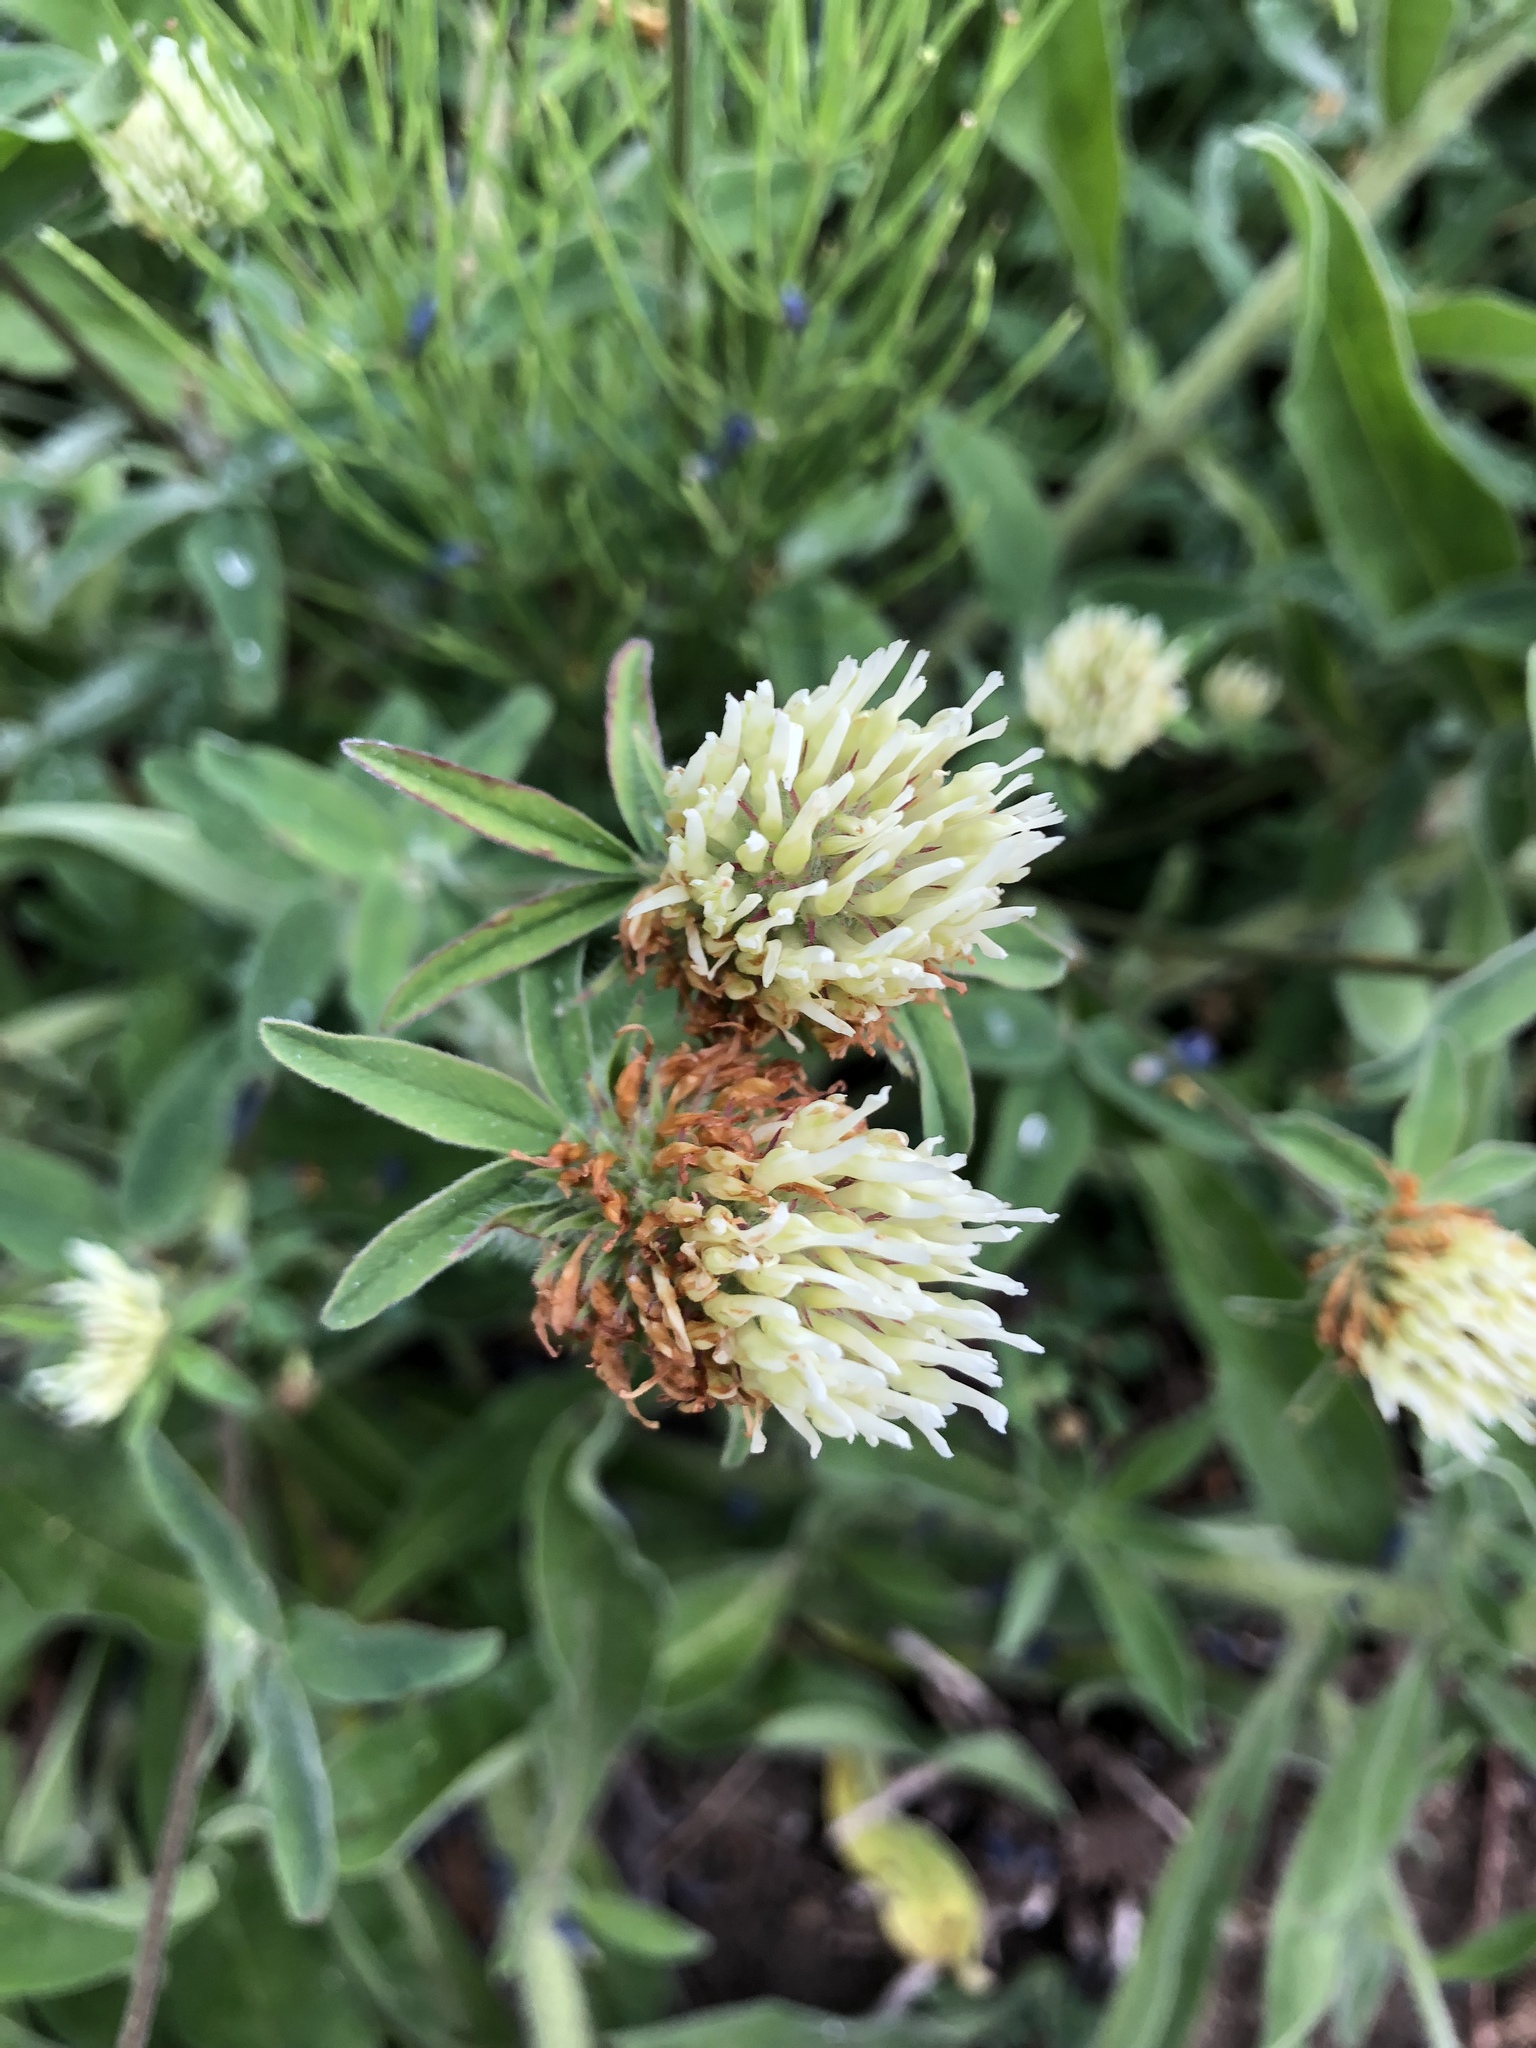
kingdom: Plantae
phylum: Tracheophyta
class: Magnoliopsida
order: Fabales
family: Fabaceae
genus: Trifolium
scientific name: Trifolium ochroleucon
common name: Sulphur clover
